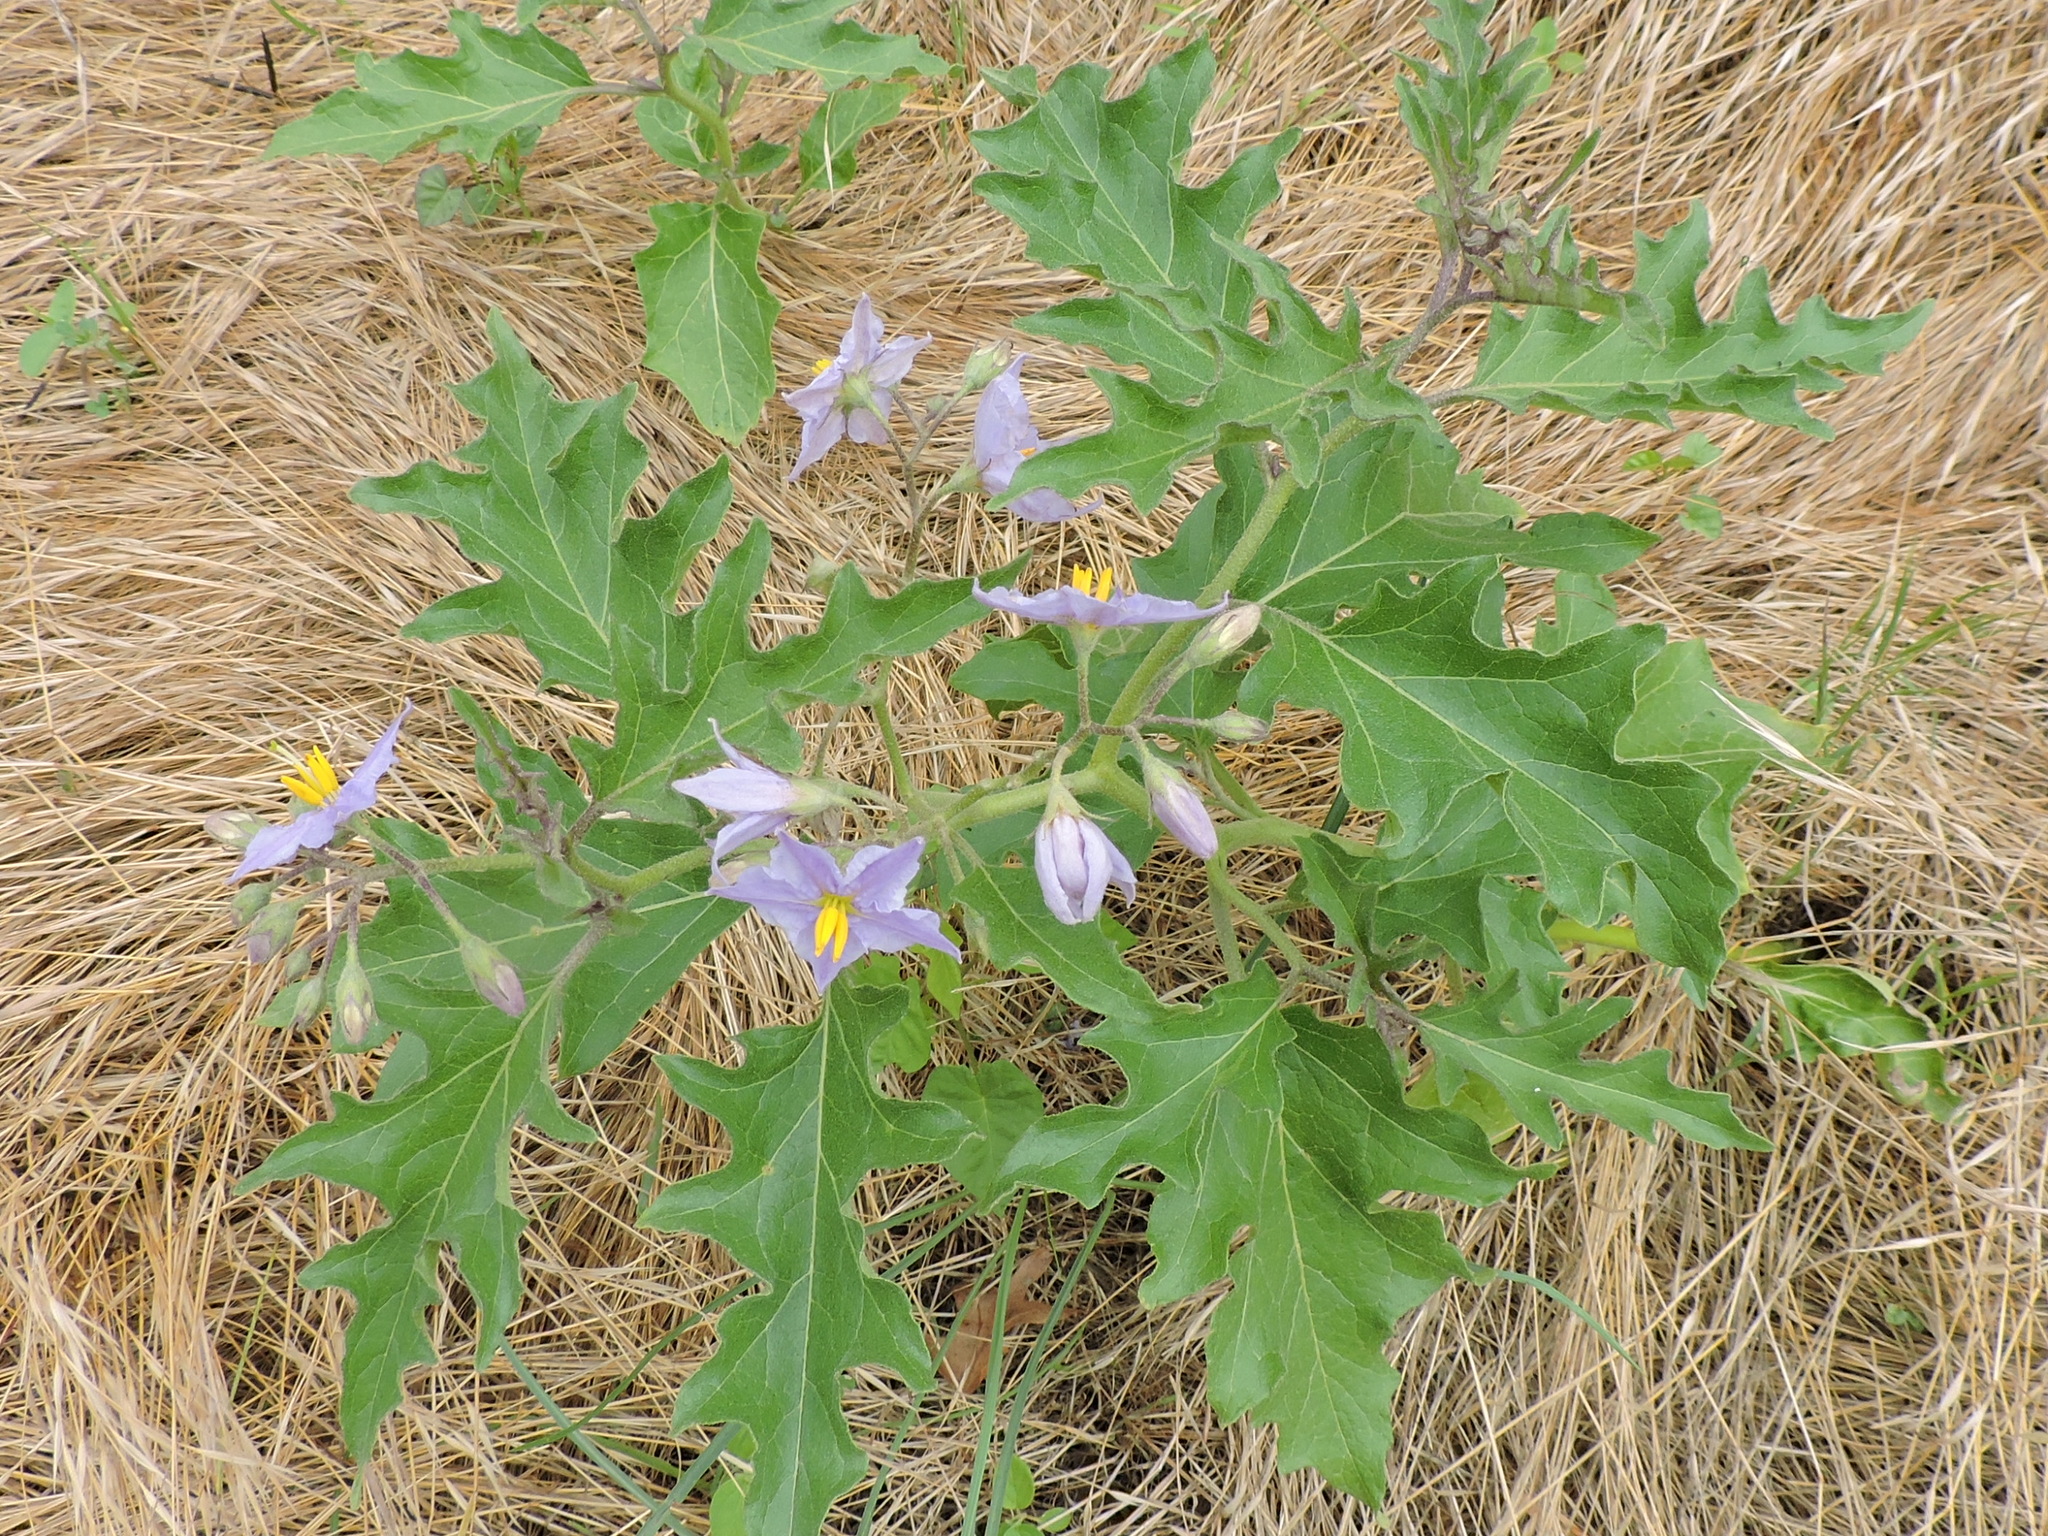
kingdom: Plantae
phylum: Tracheophyta
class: Magnoliopsida
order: Solanales
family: Solanaceae
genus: Solanum
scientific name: Solanum dimidiatum
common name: Carolina horse-nettle
